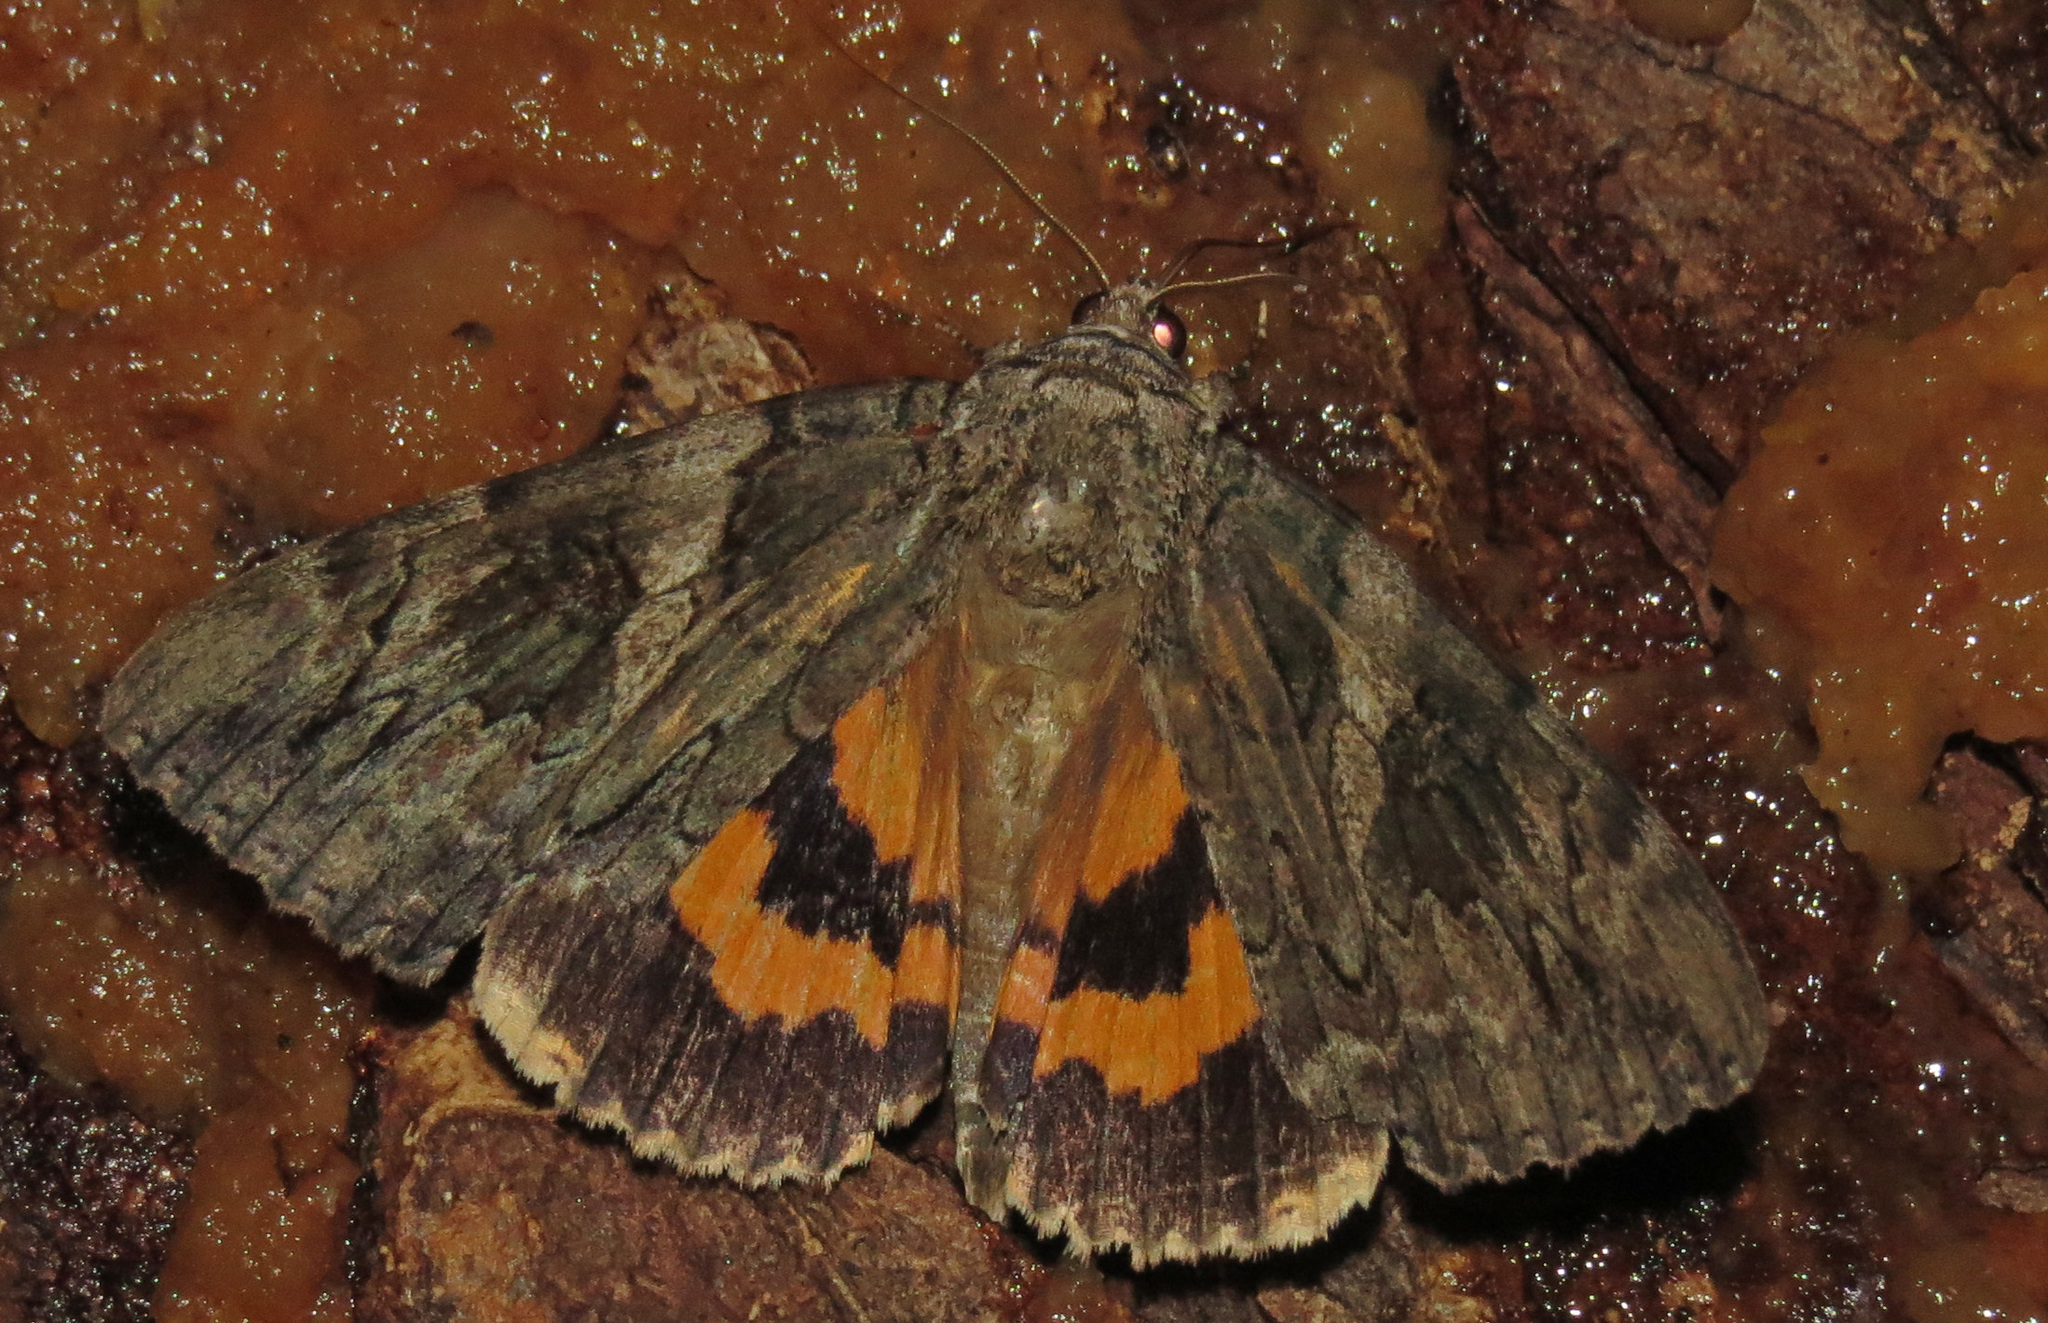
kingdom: Animalia
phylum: Arthropoda
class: Insecta
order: Lepidoptera
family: Erebidae
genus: Catocala
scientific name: Catocala piatrix
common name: The penitent underwing
